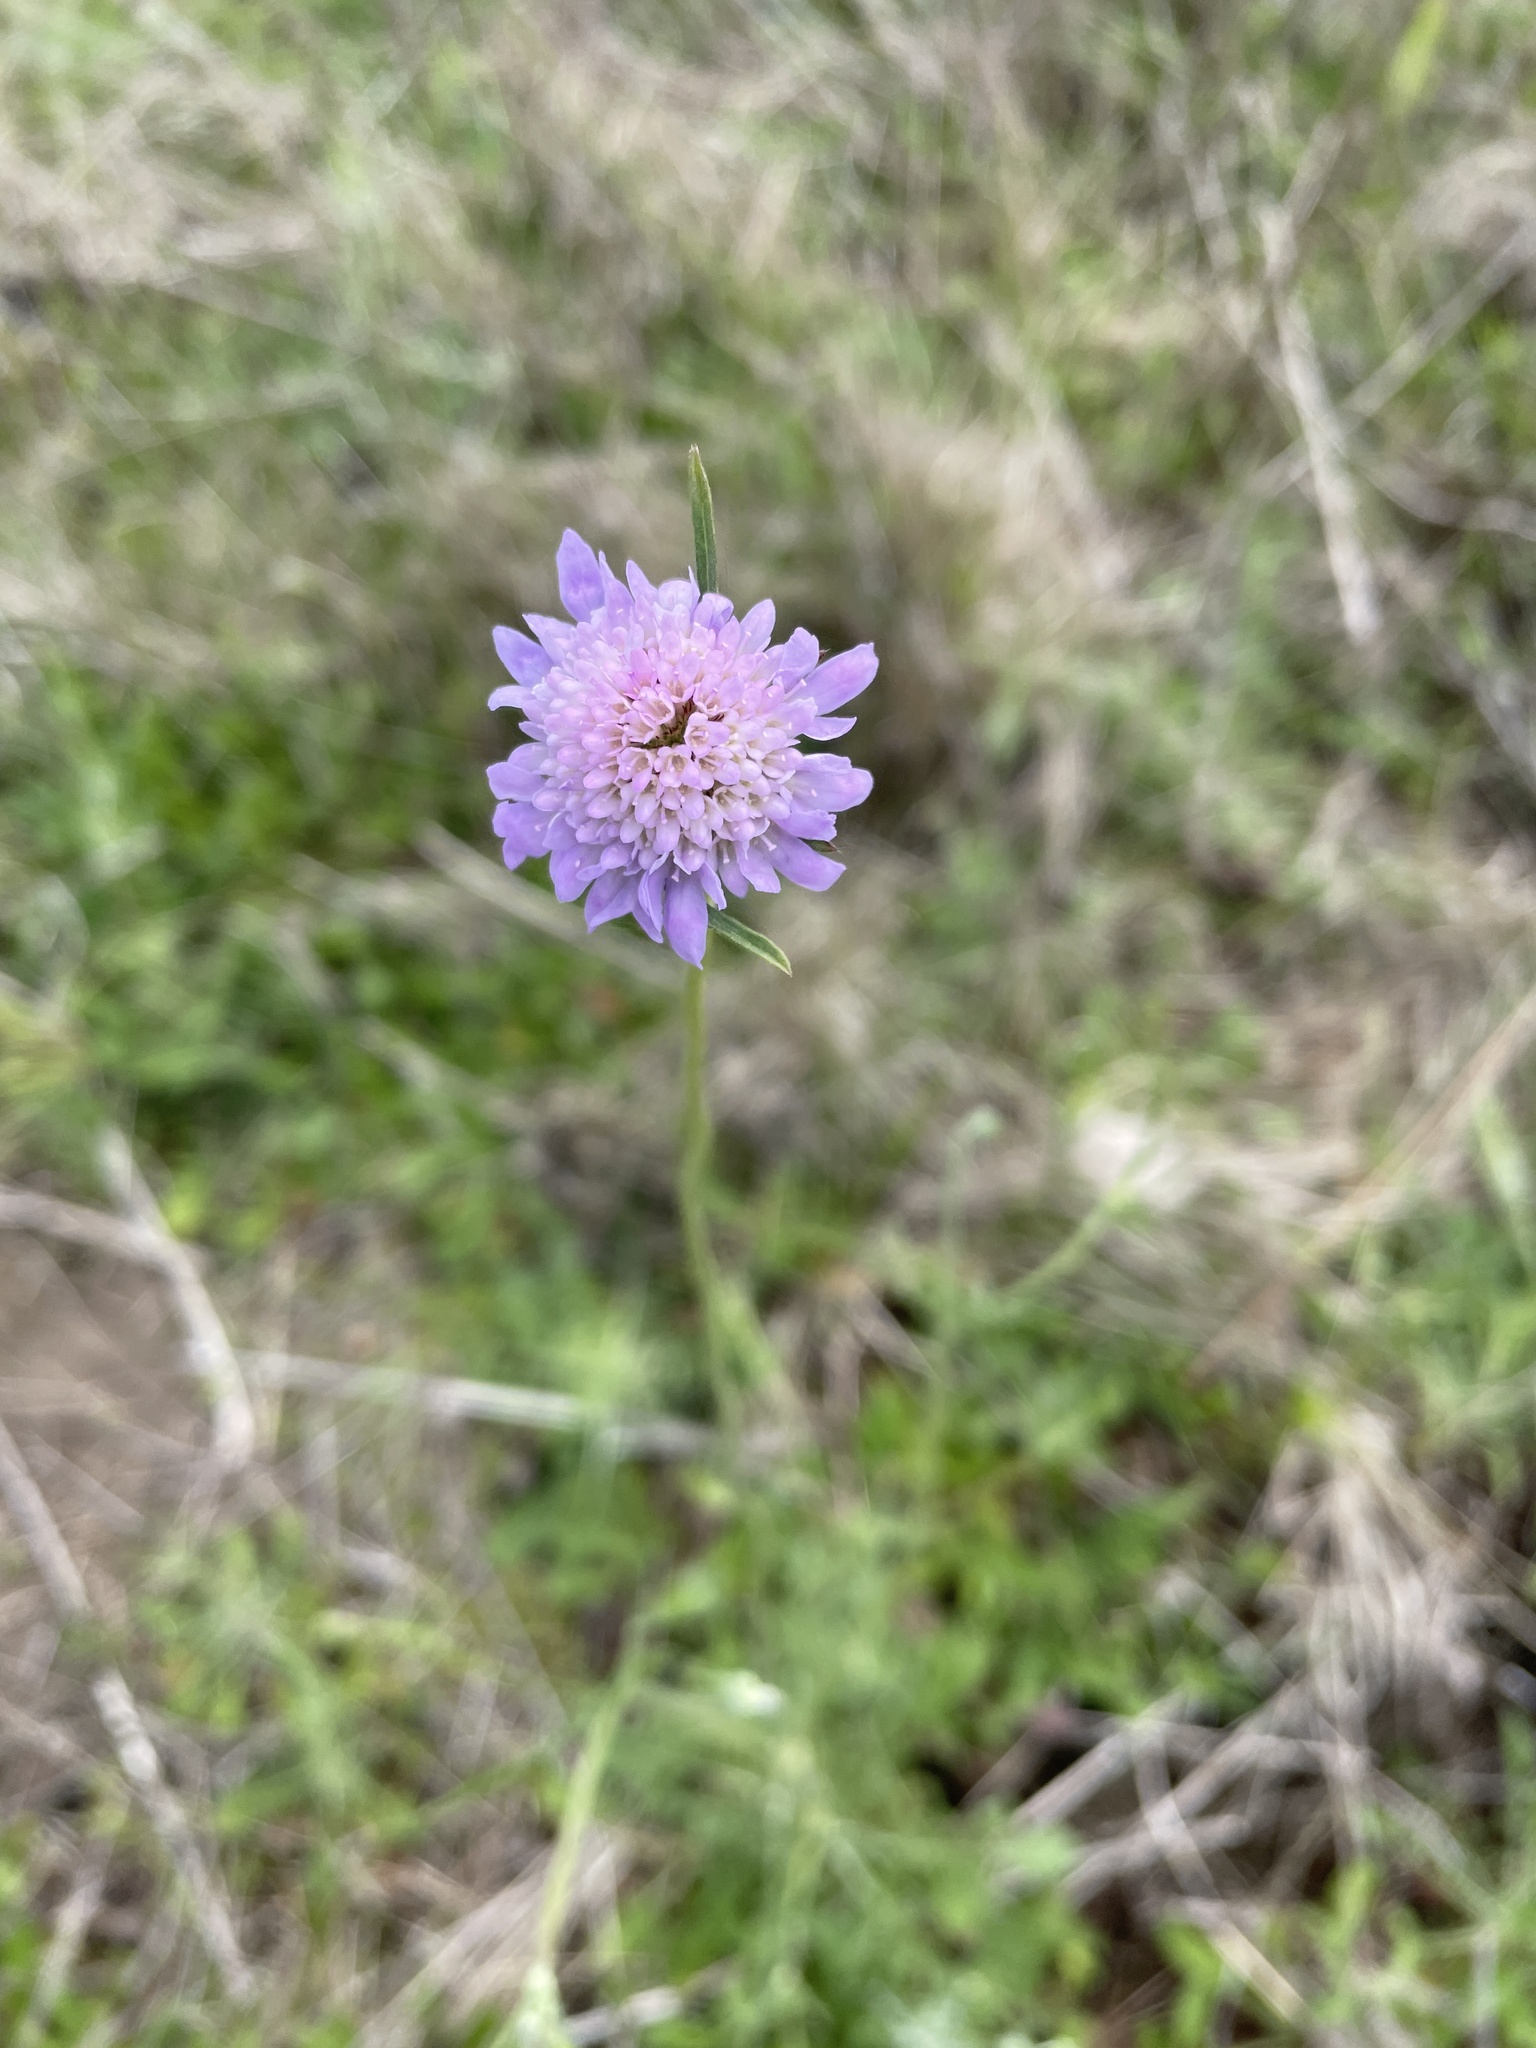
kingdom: Plantae
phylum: Tracheophyta
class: Magnoliopsida
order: Dipsacales
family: Caprifoliaceae
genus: Sixalix
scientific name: Sixalix atropurpurea
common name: Sweet scabious
